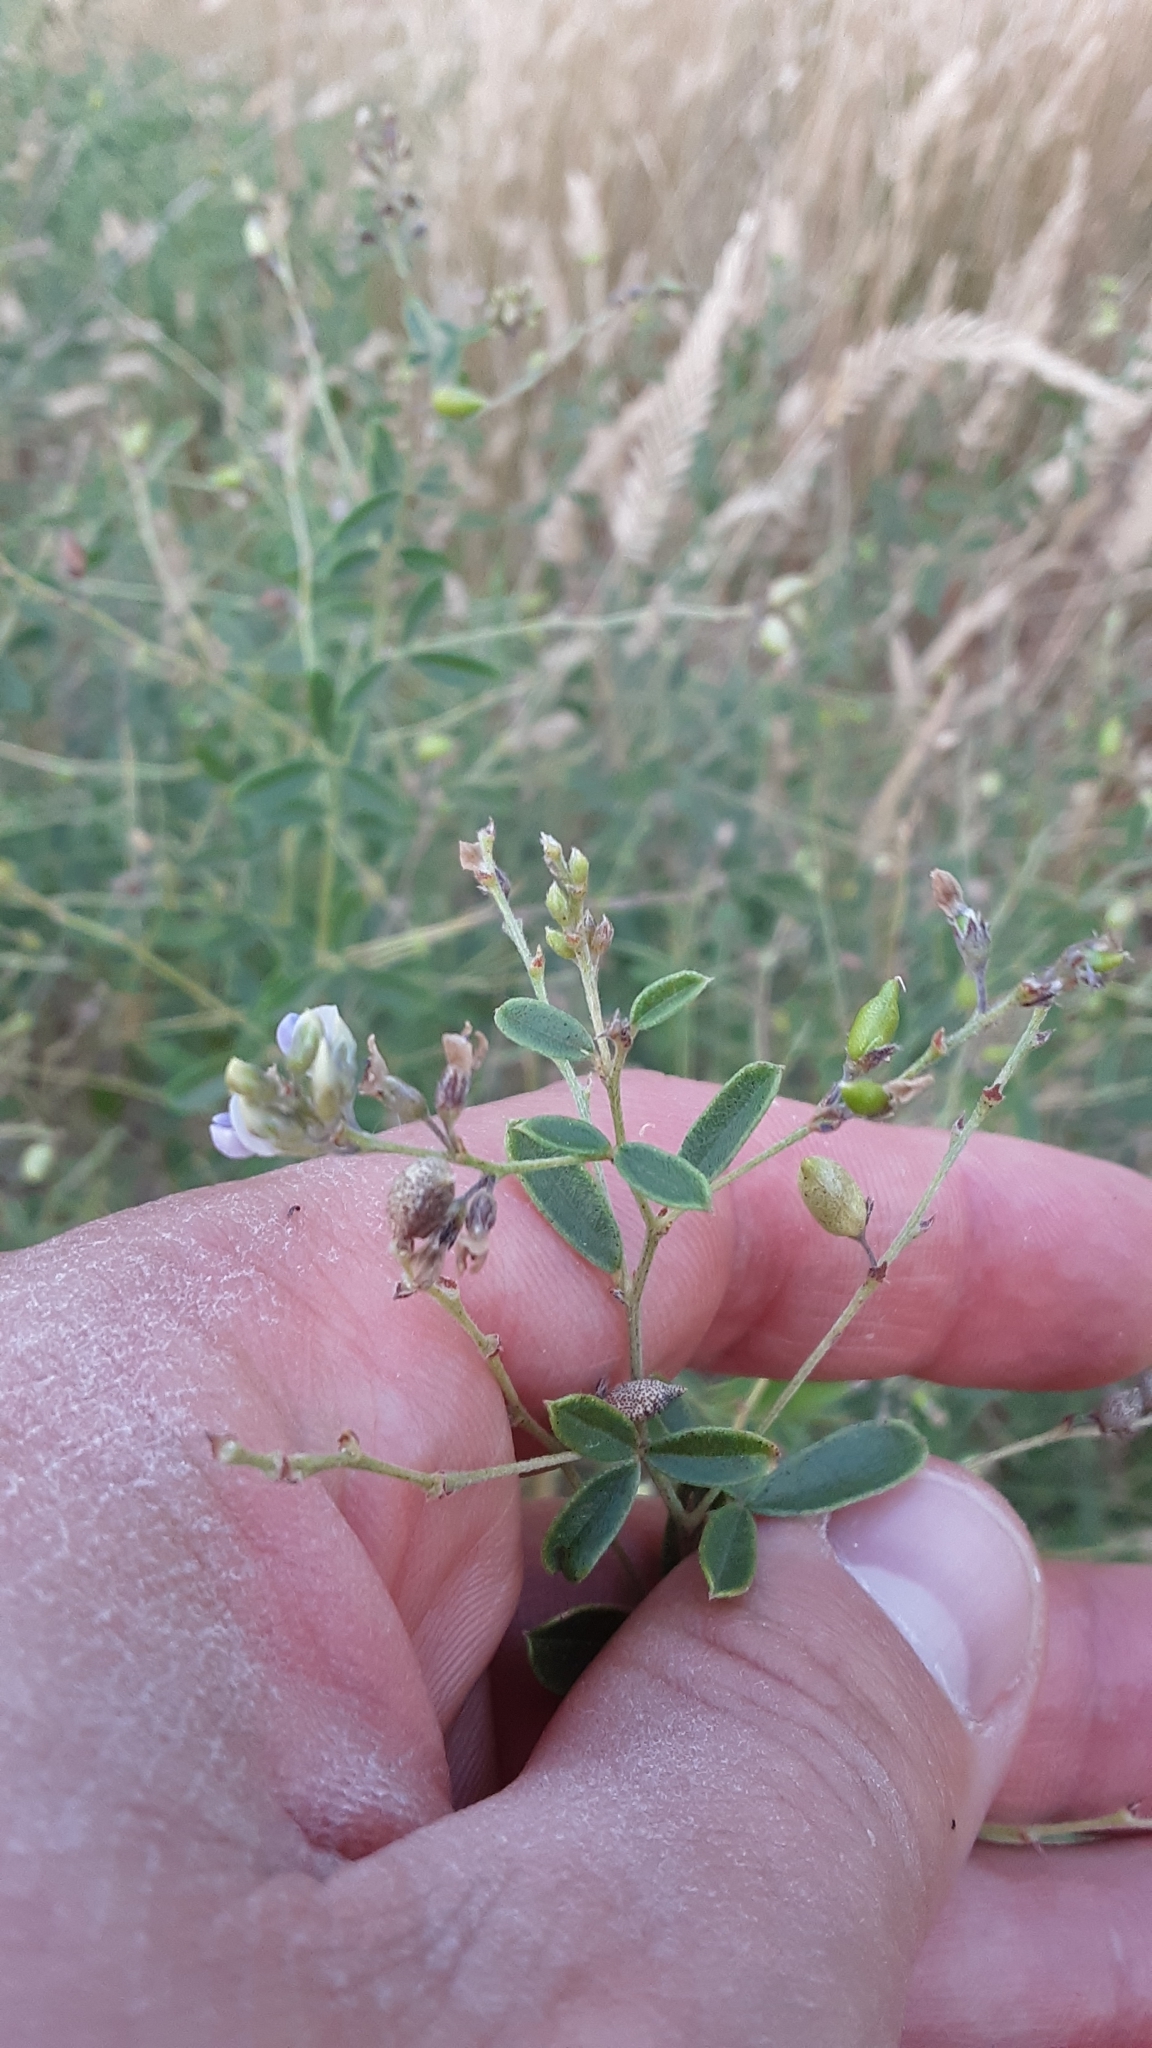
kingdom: Plantae
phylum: Tracheophyta
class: Magnoliopsida
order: Fabales
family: Fabaceae
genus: Pediomelum
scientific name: Pediomelum tenuiflorum
